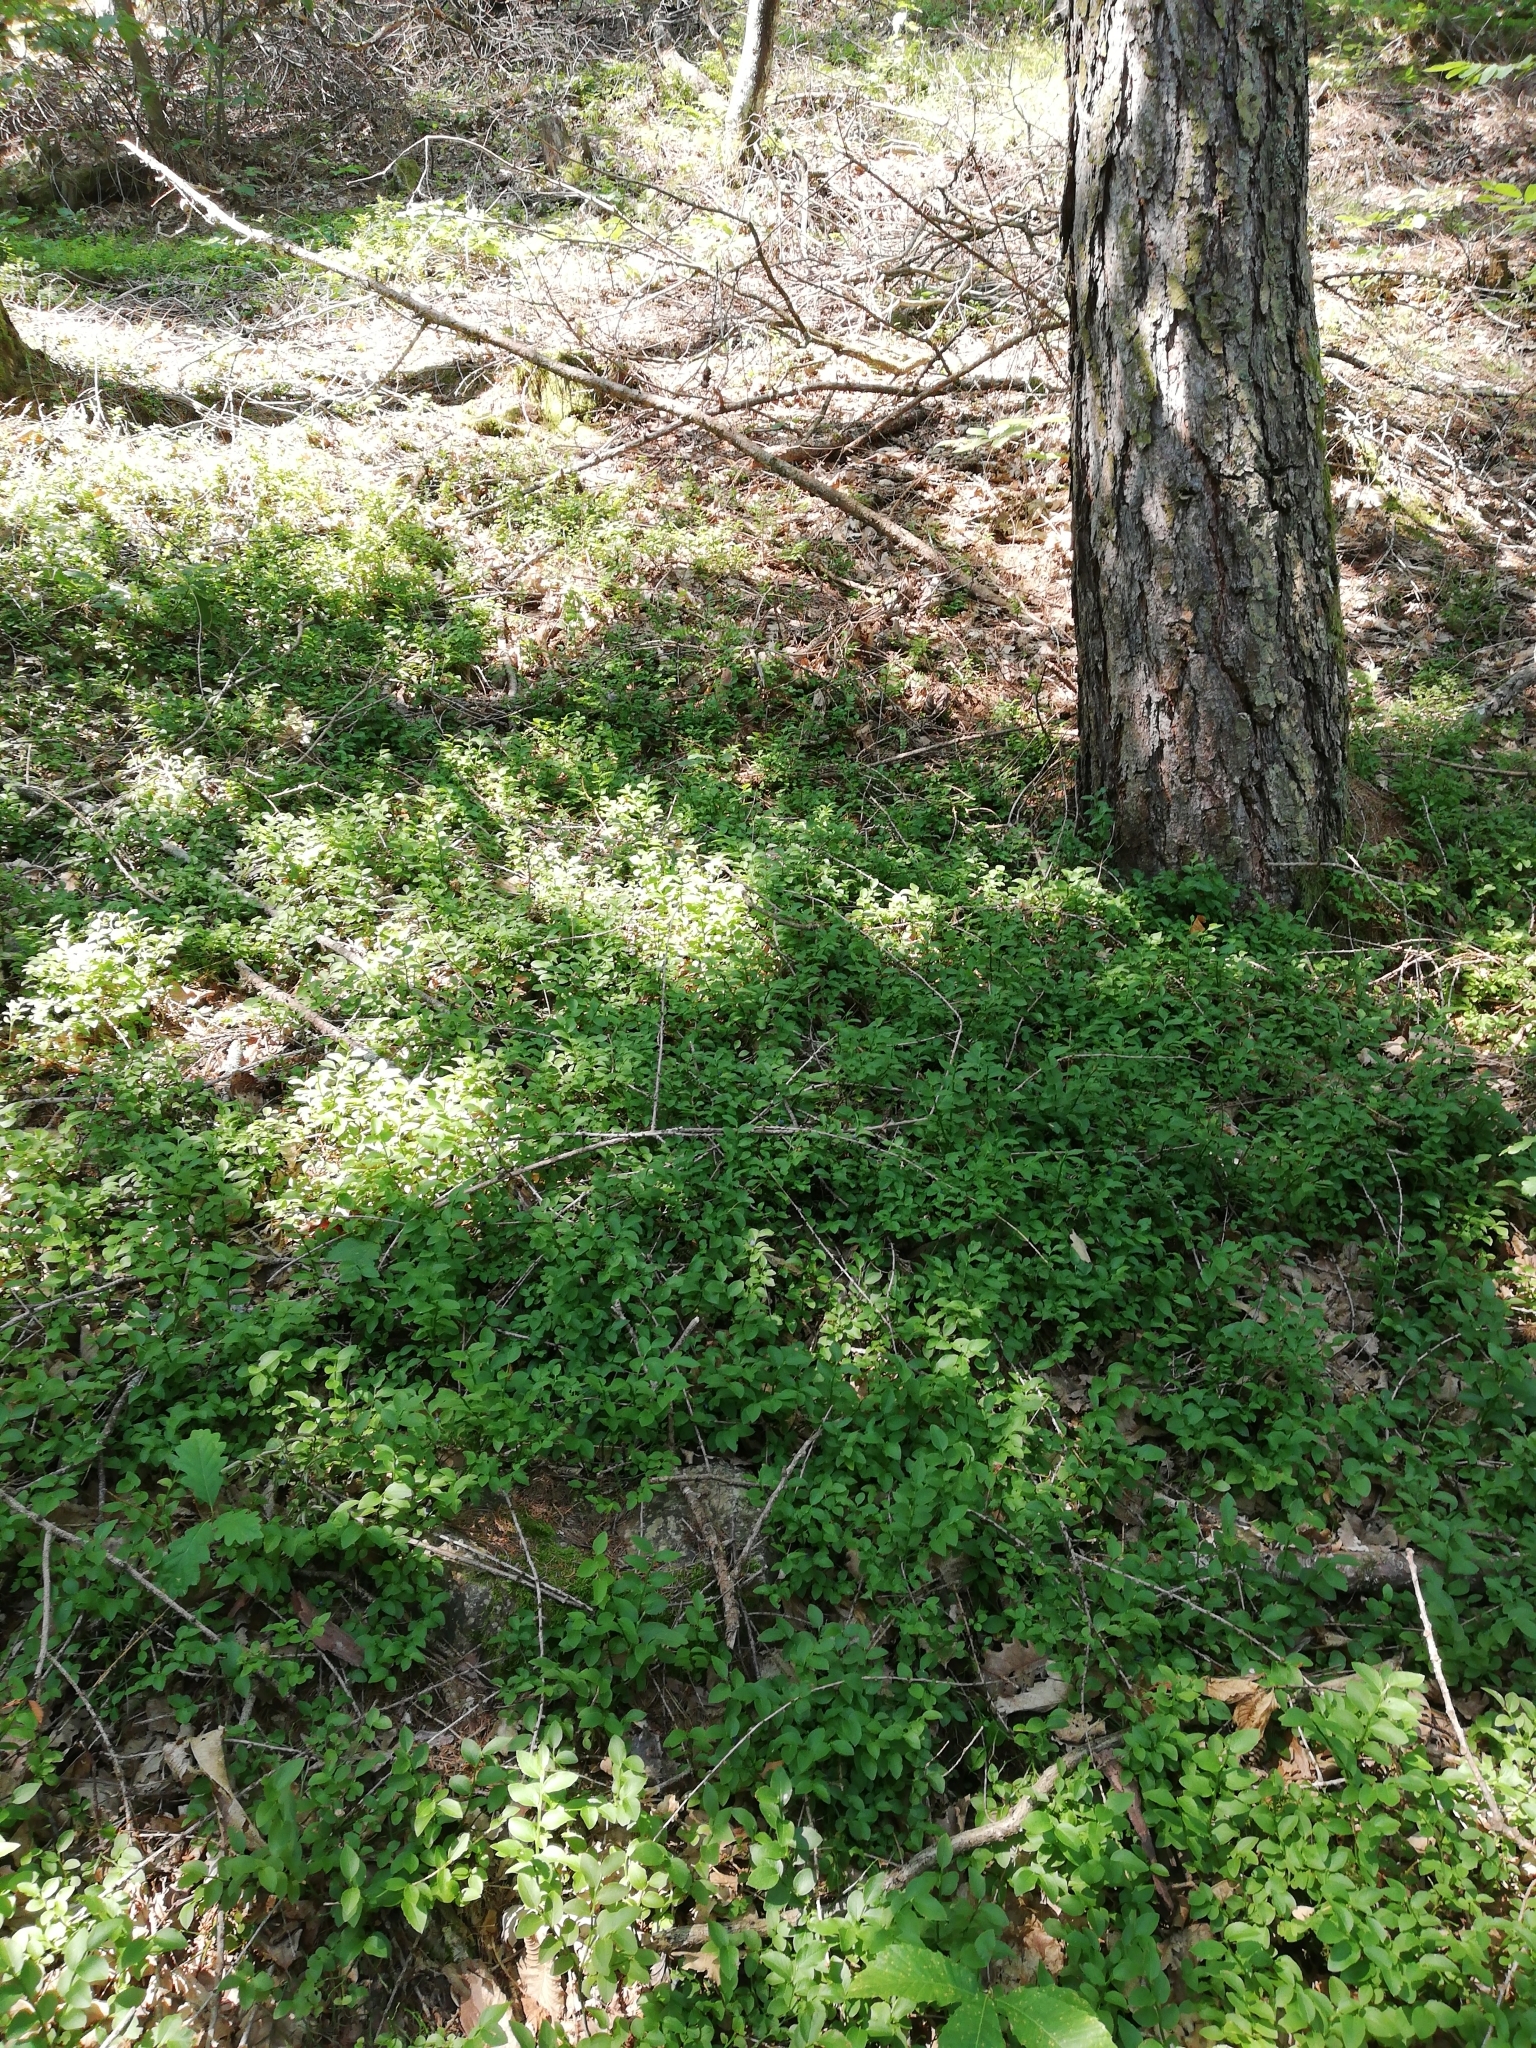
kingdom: Plantae
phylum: Tracheophyta
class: Magnoliopsida
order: Ericales
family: Ericaceae
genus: Vaccinium
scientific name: Vaccinium uliginosum
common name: Bog bilberry
